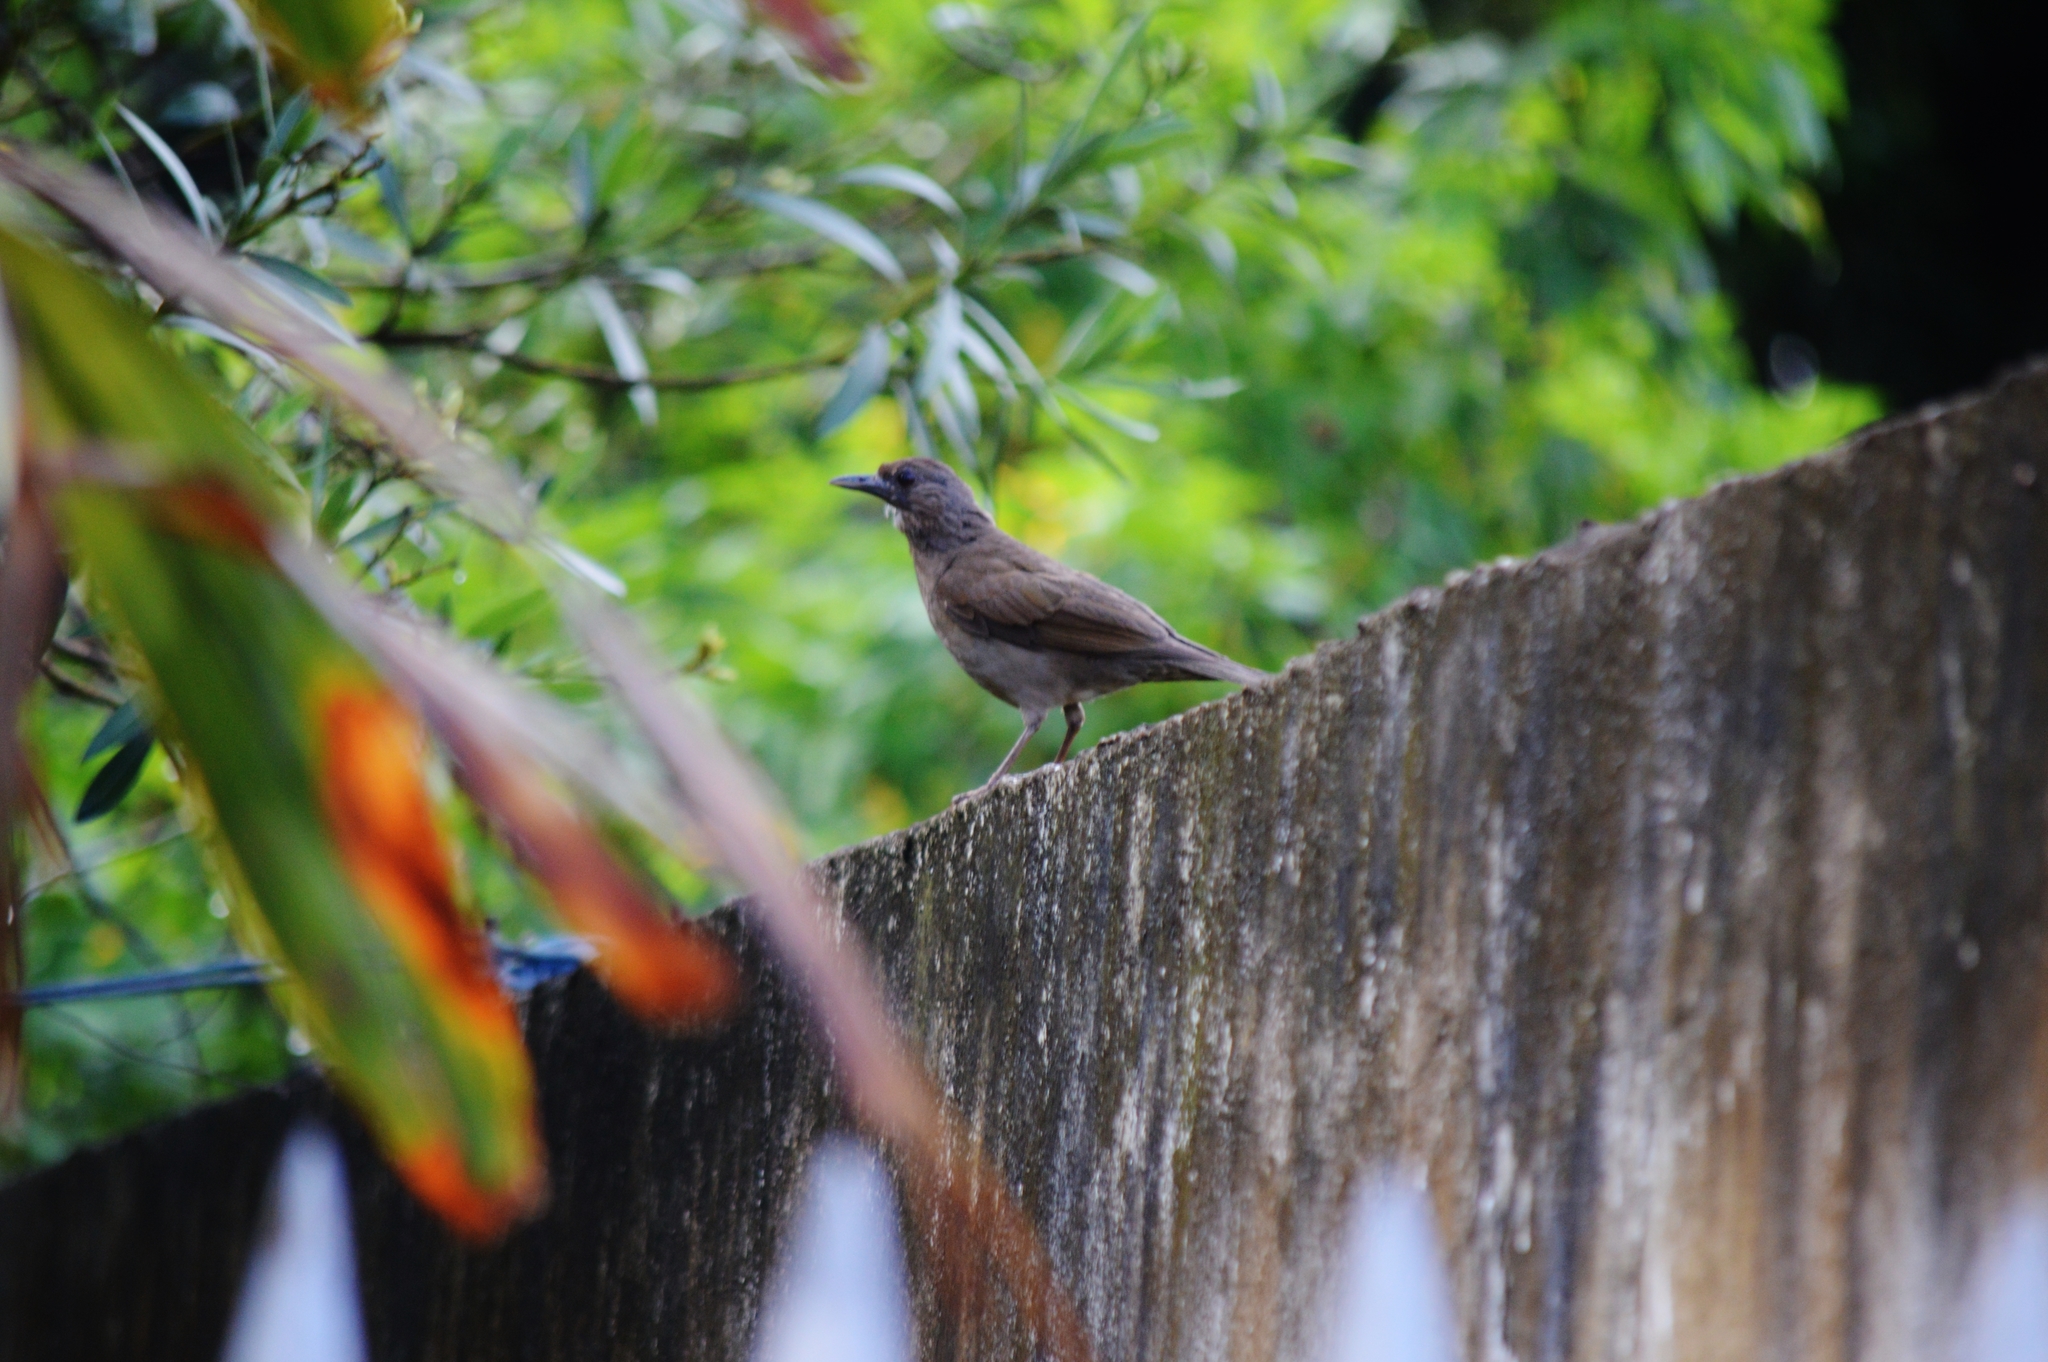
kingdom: Animalia
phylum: Chordata
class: Aves
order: Passeriformes
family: Turdidae
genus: Turdus
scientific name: Turdus leucomelas
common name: Pale-breasted thrush
